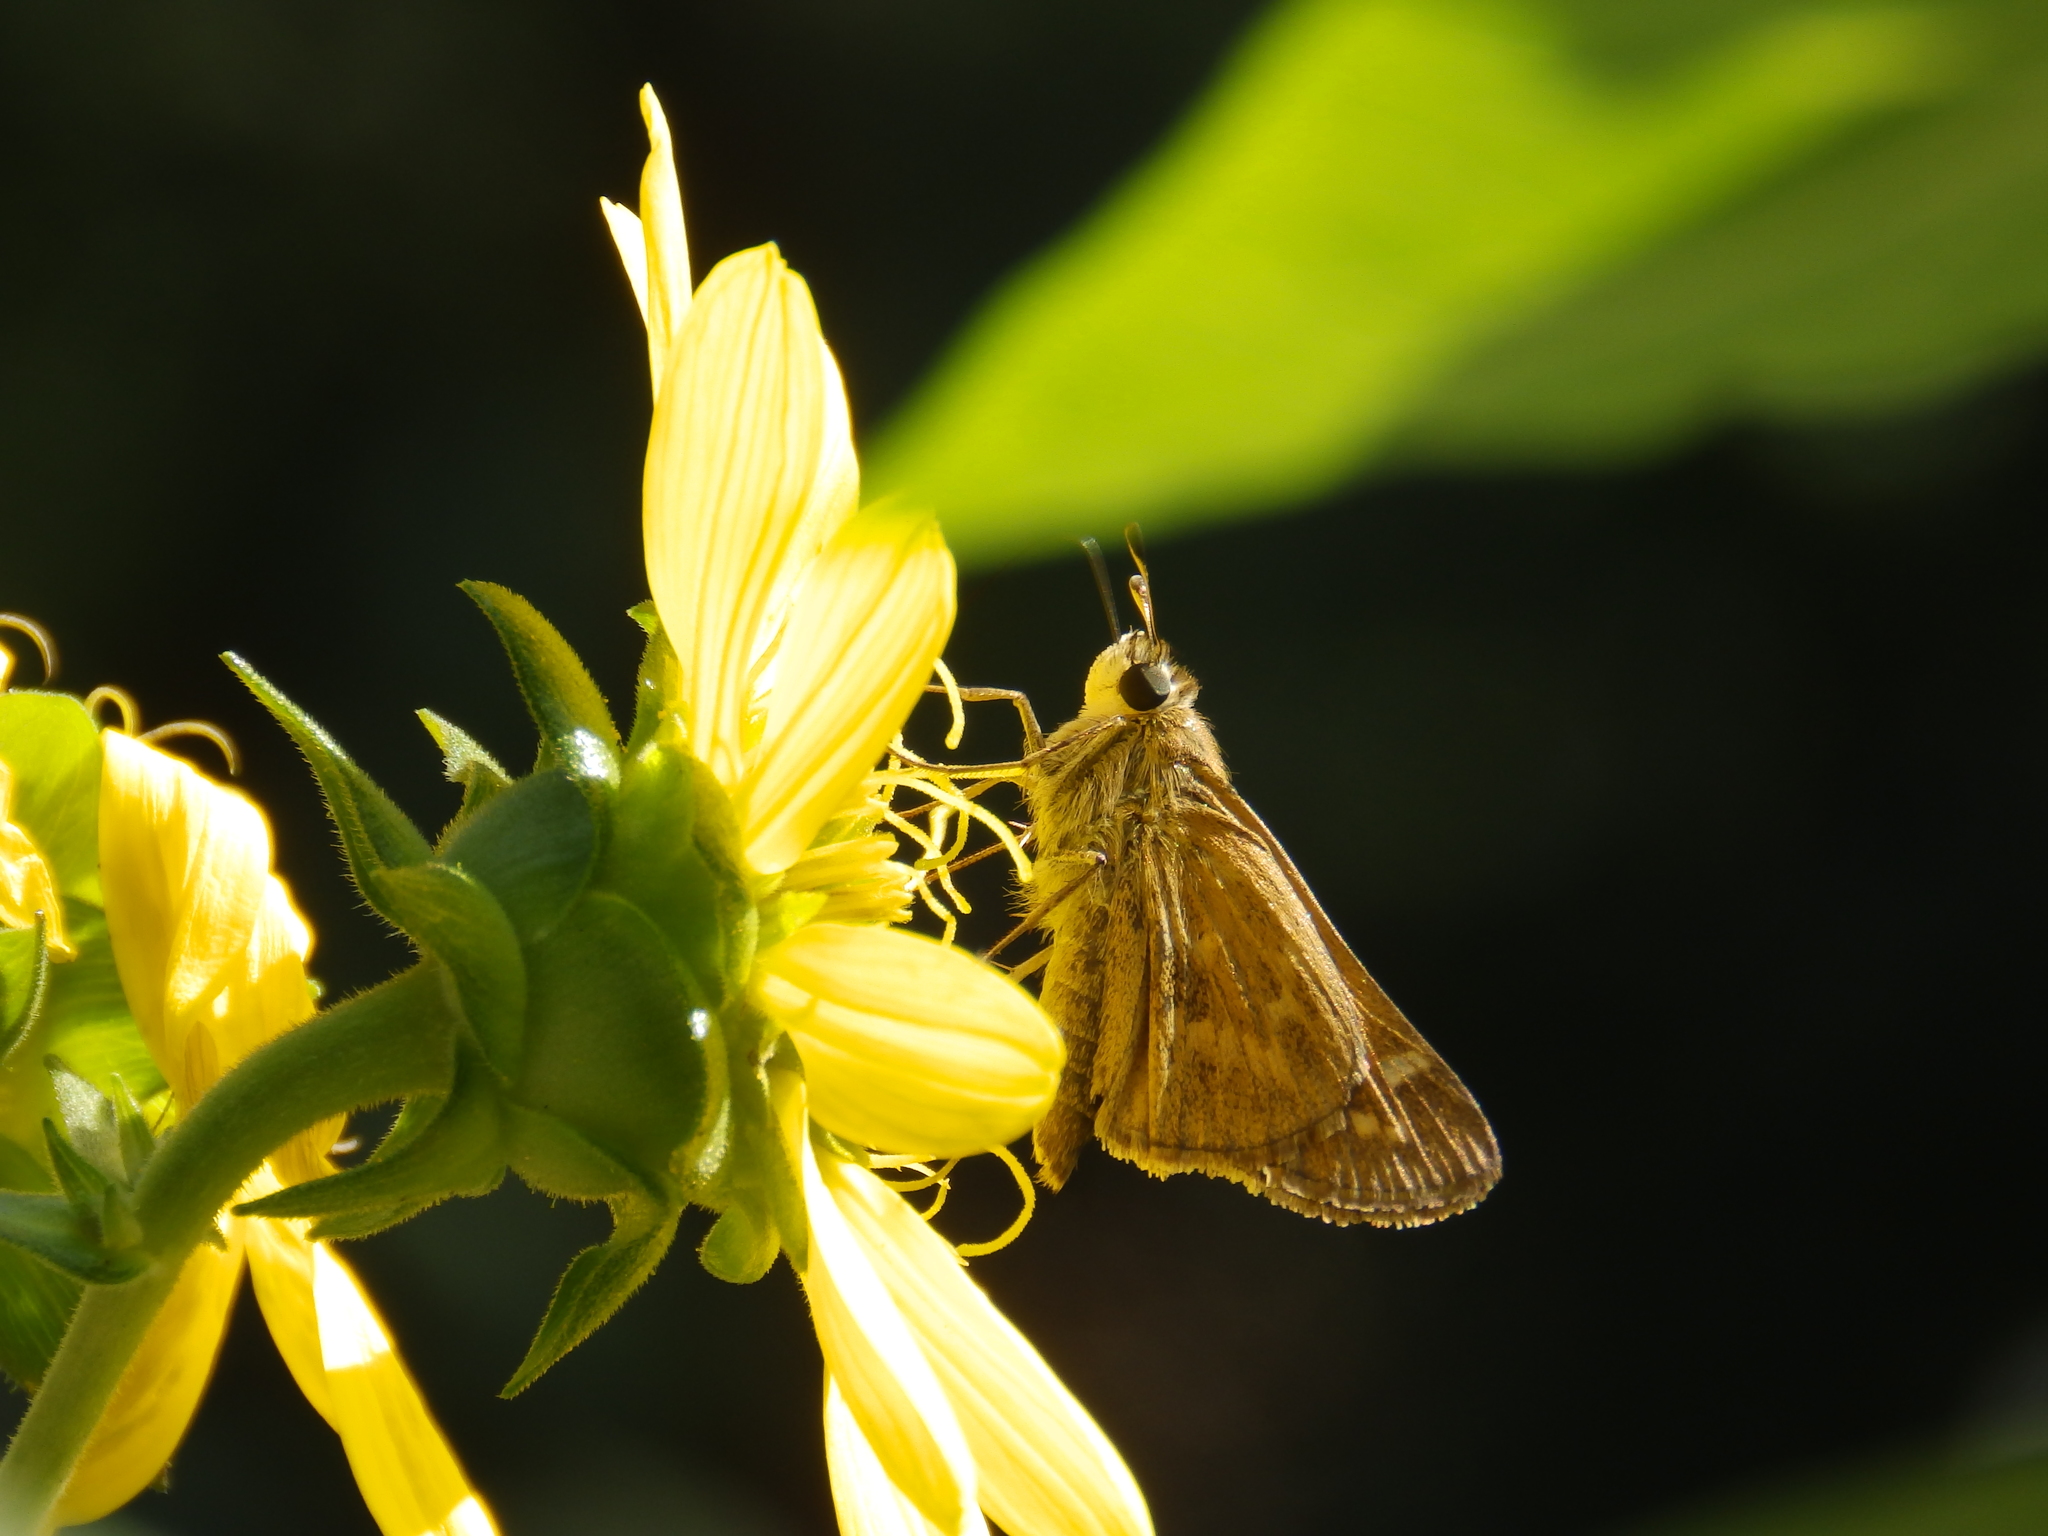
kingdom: Animalia
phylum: Arthropoda
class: Insecta
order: Lepidoptera
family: Hesperiidae
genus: Atalopedes
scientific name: Atalopedes
